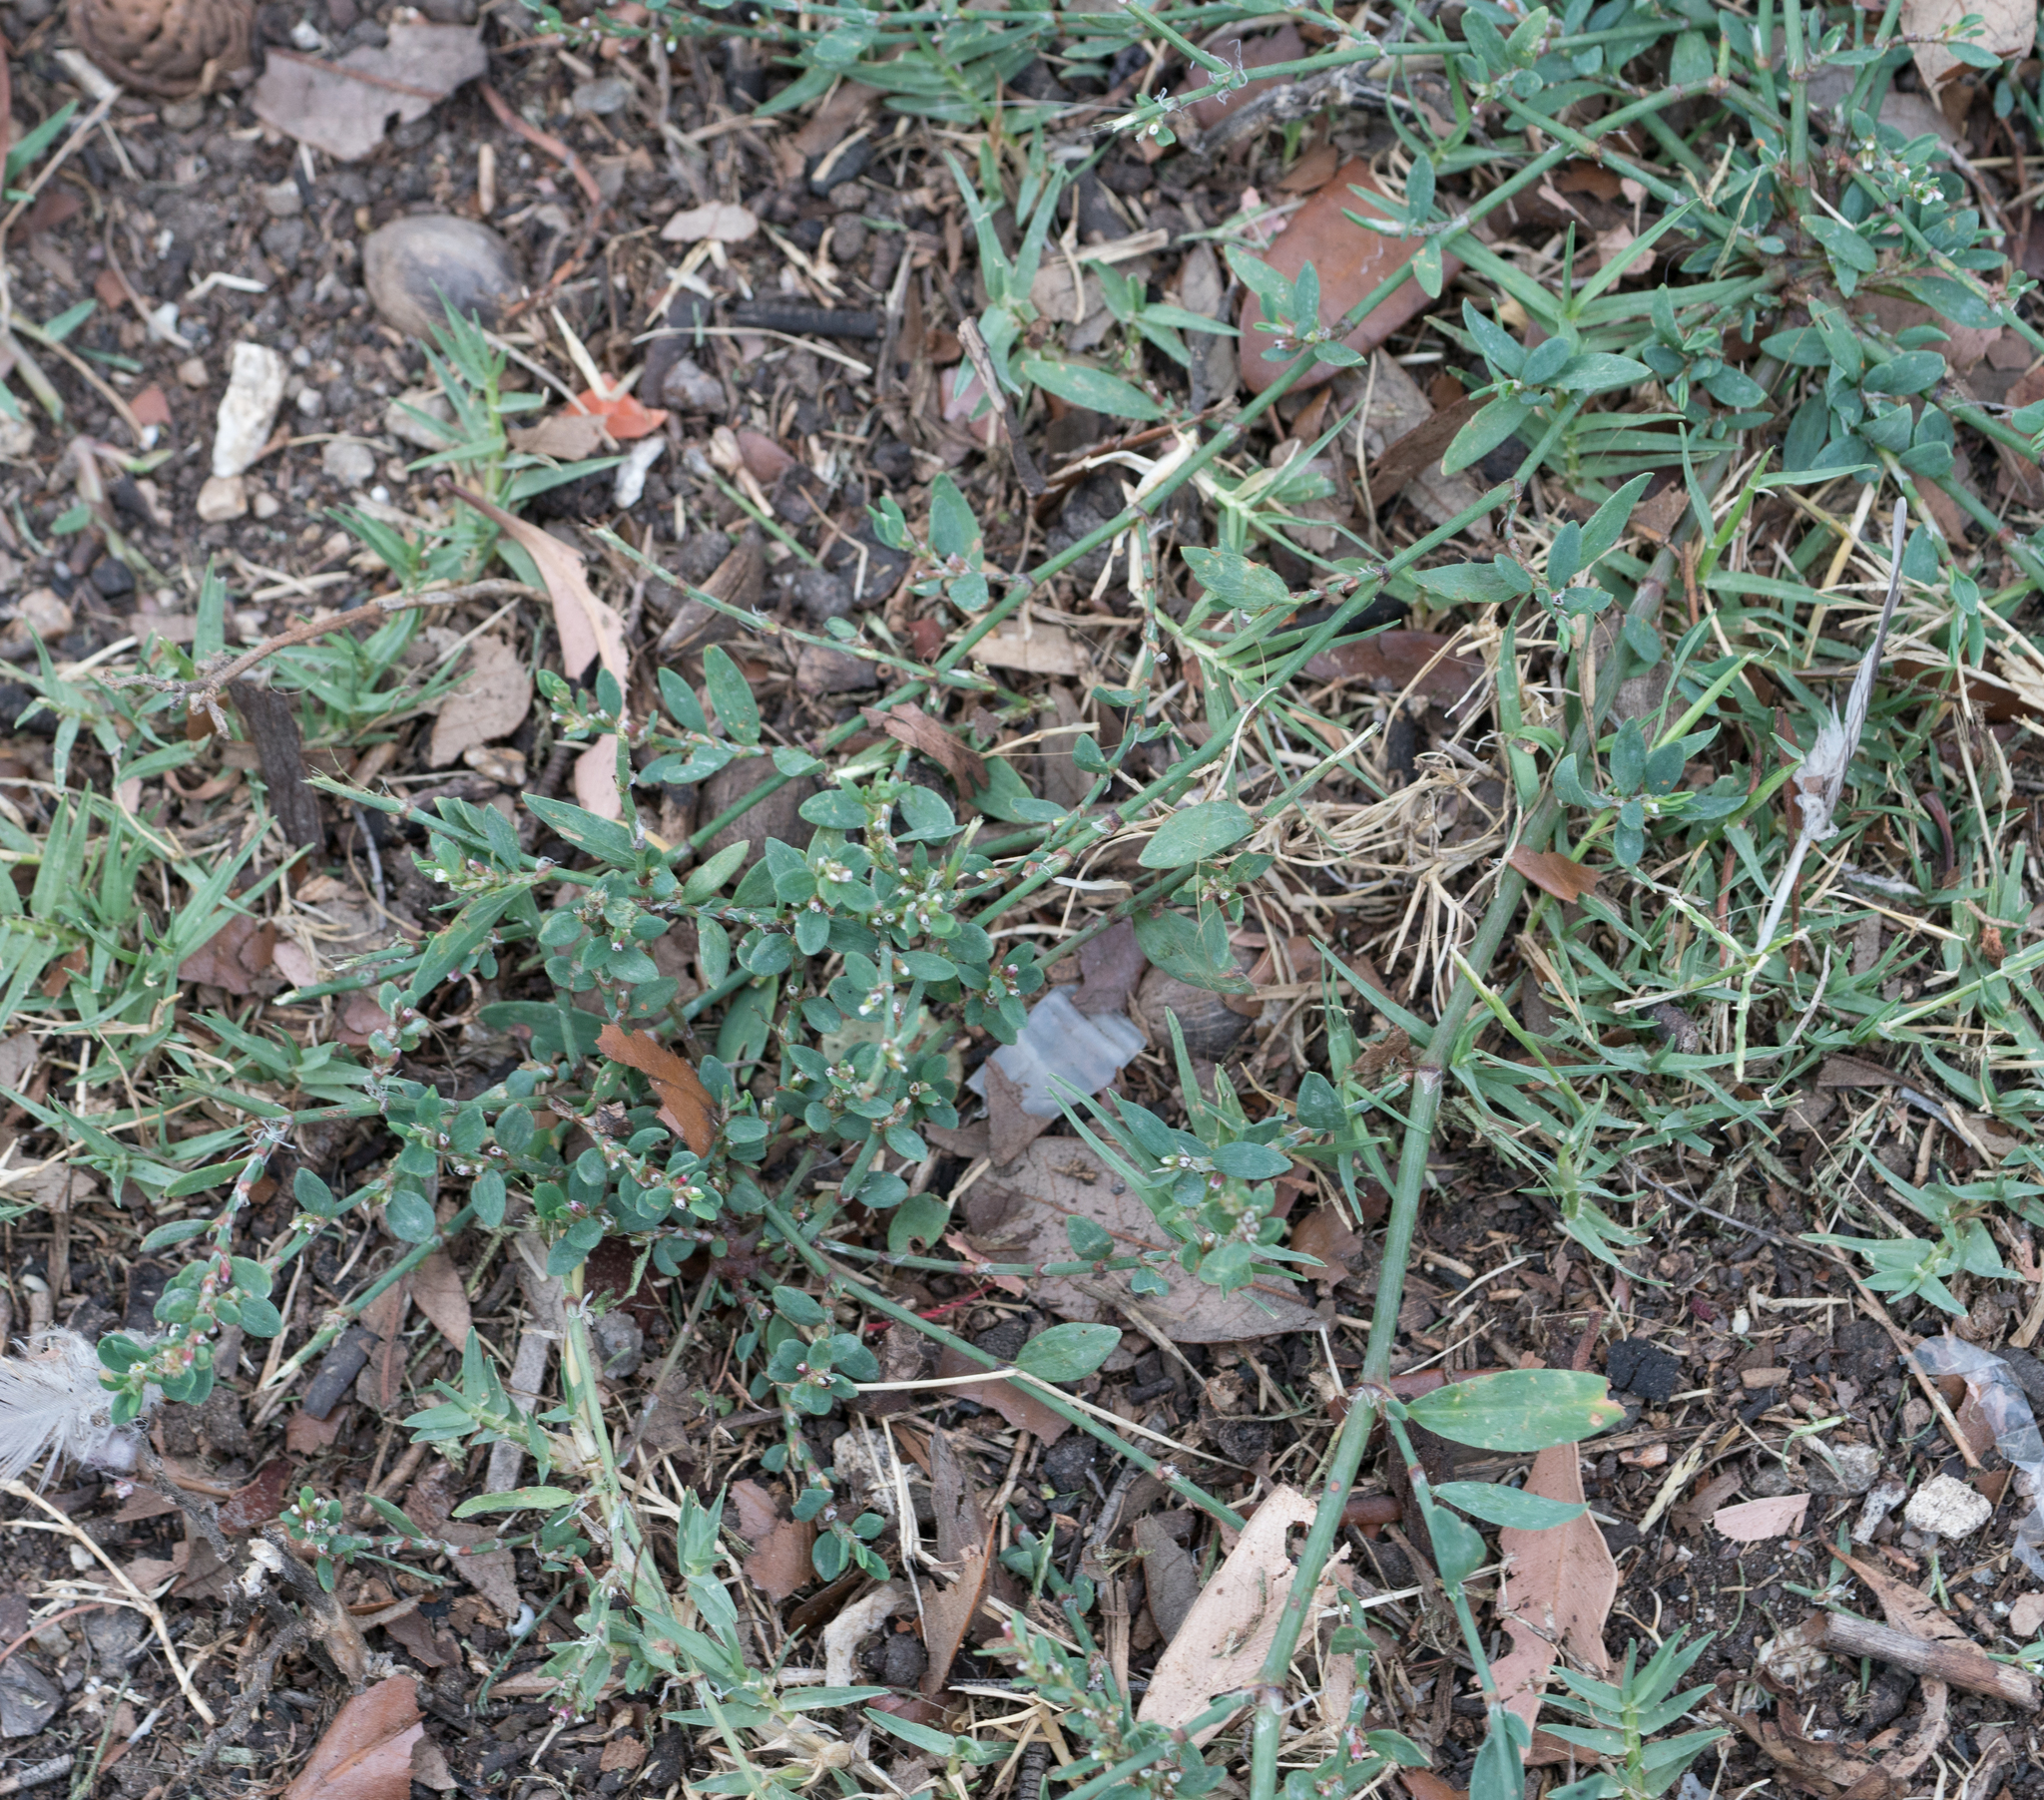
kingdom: Plantae
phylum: Tracheophyta
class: Magnoliopsida
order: Caryophyllales
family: Polygonaceae
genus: Polygonum
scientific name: Polygonum arenastrum
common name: Equal-leaved knotgrass
